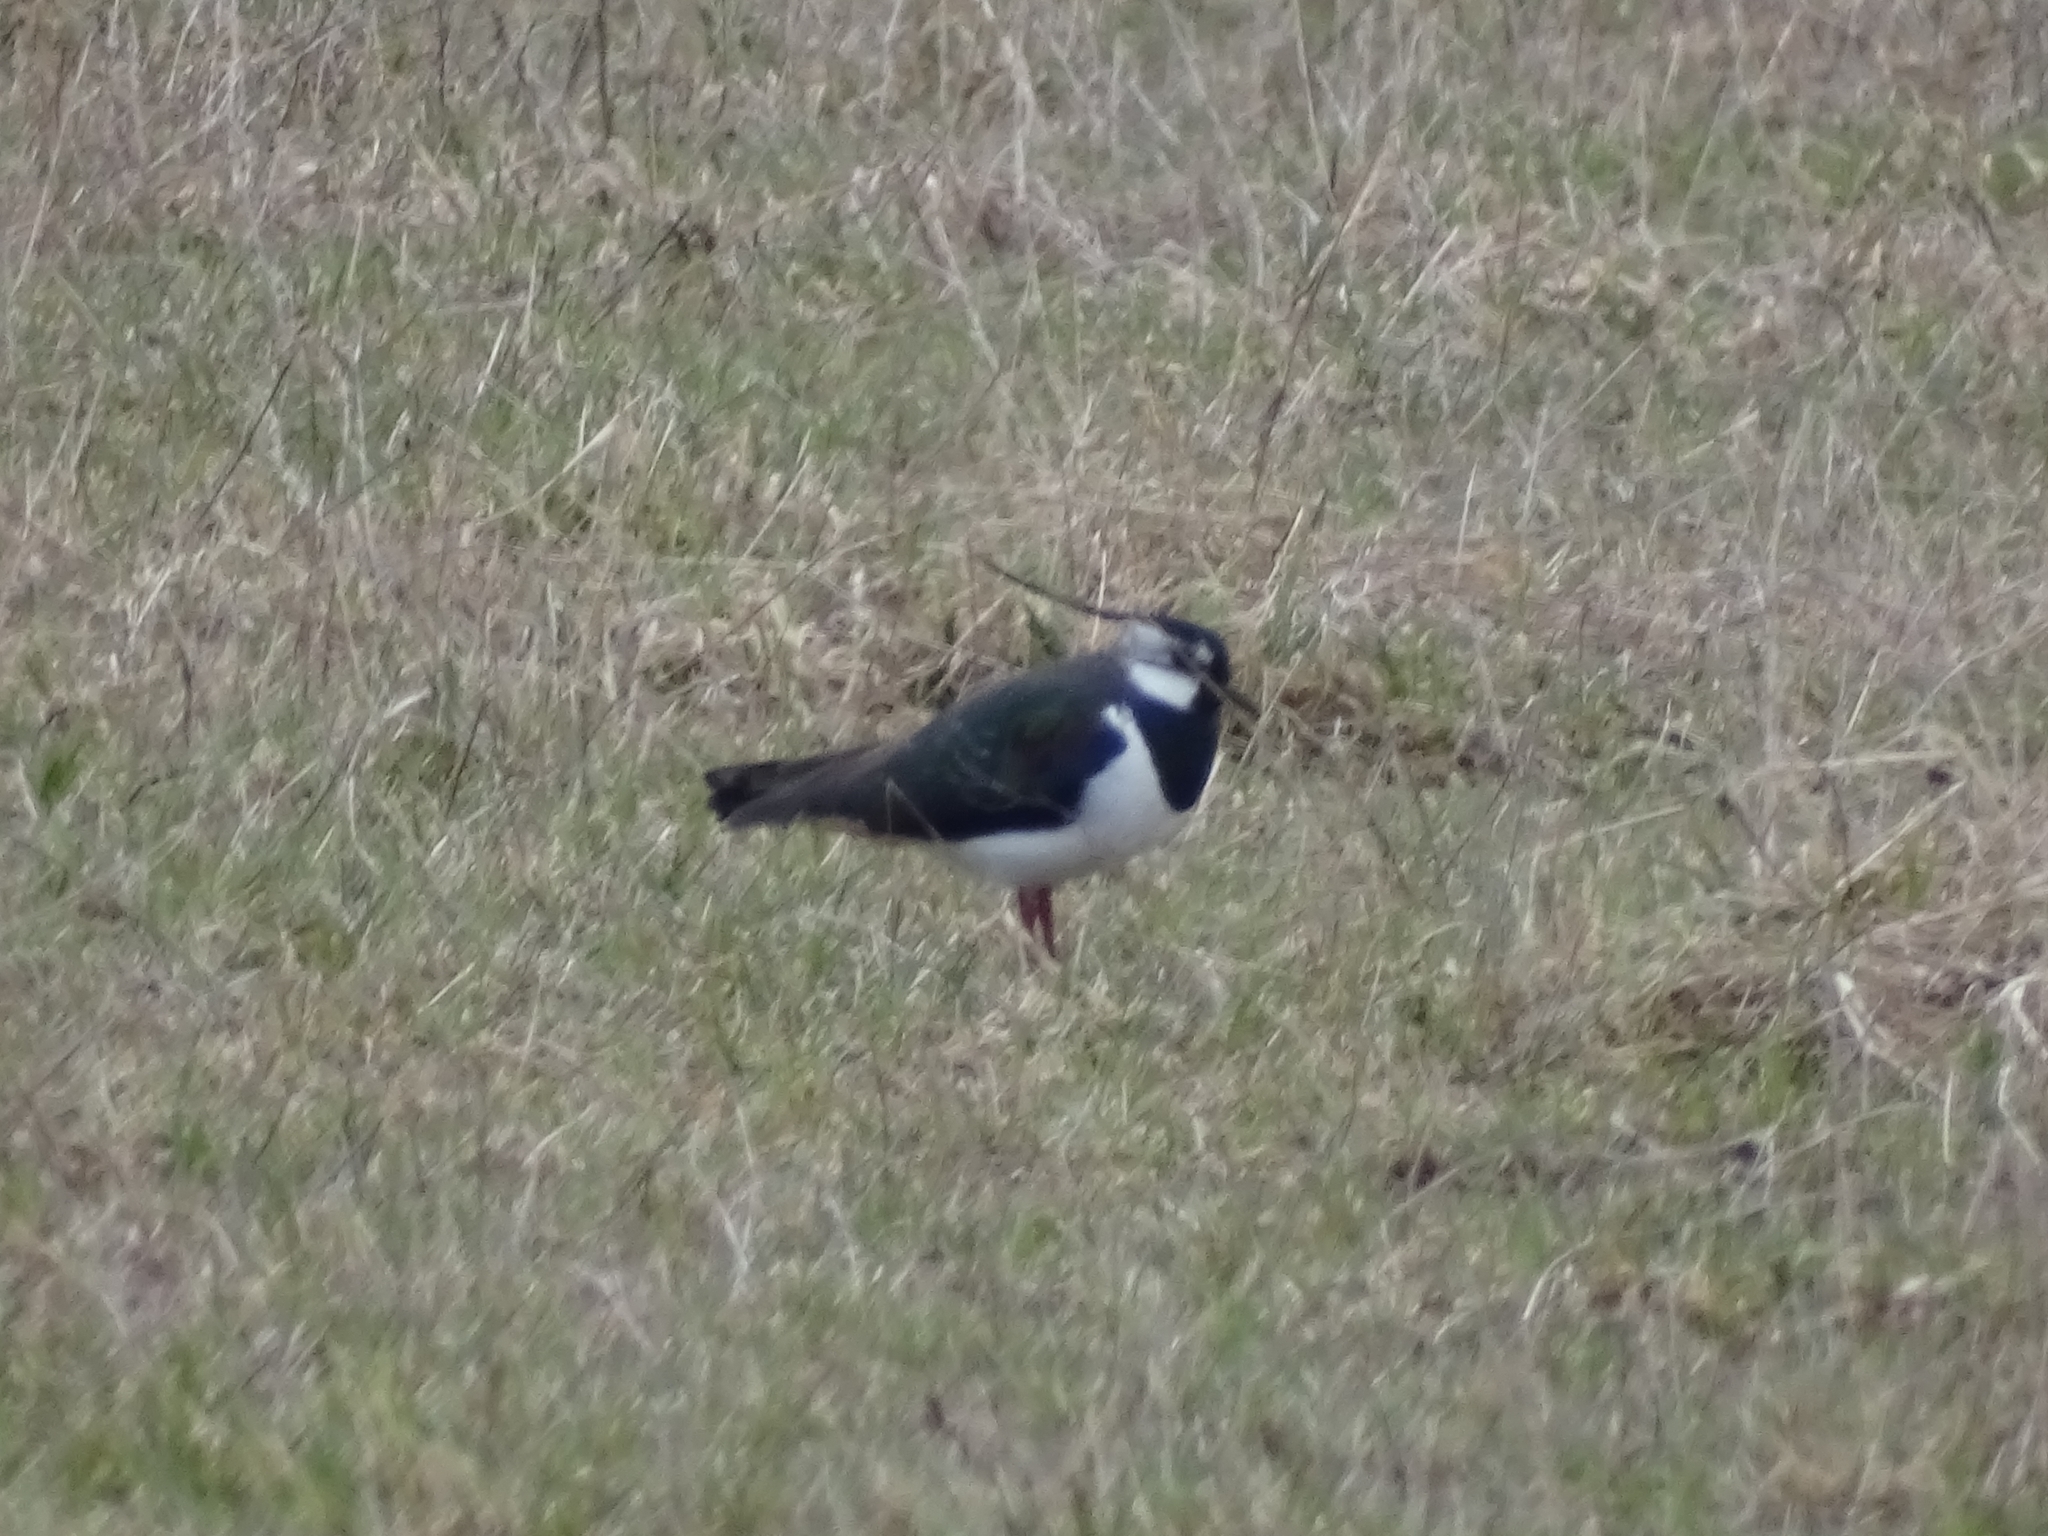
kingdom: Animalia
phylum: Chordata
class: Aves
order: Charadriiformes
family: Charadriidae
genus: Vanellus
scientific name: Vanellus vanellus
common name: Northern lapwing
